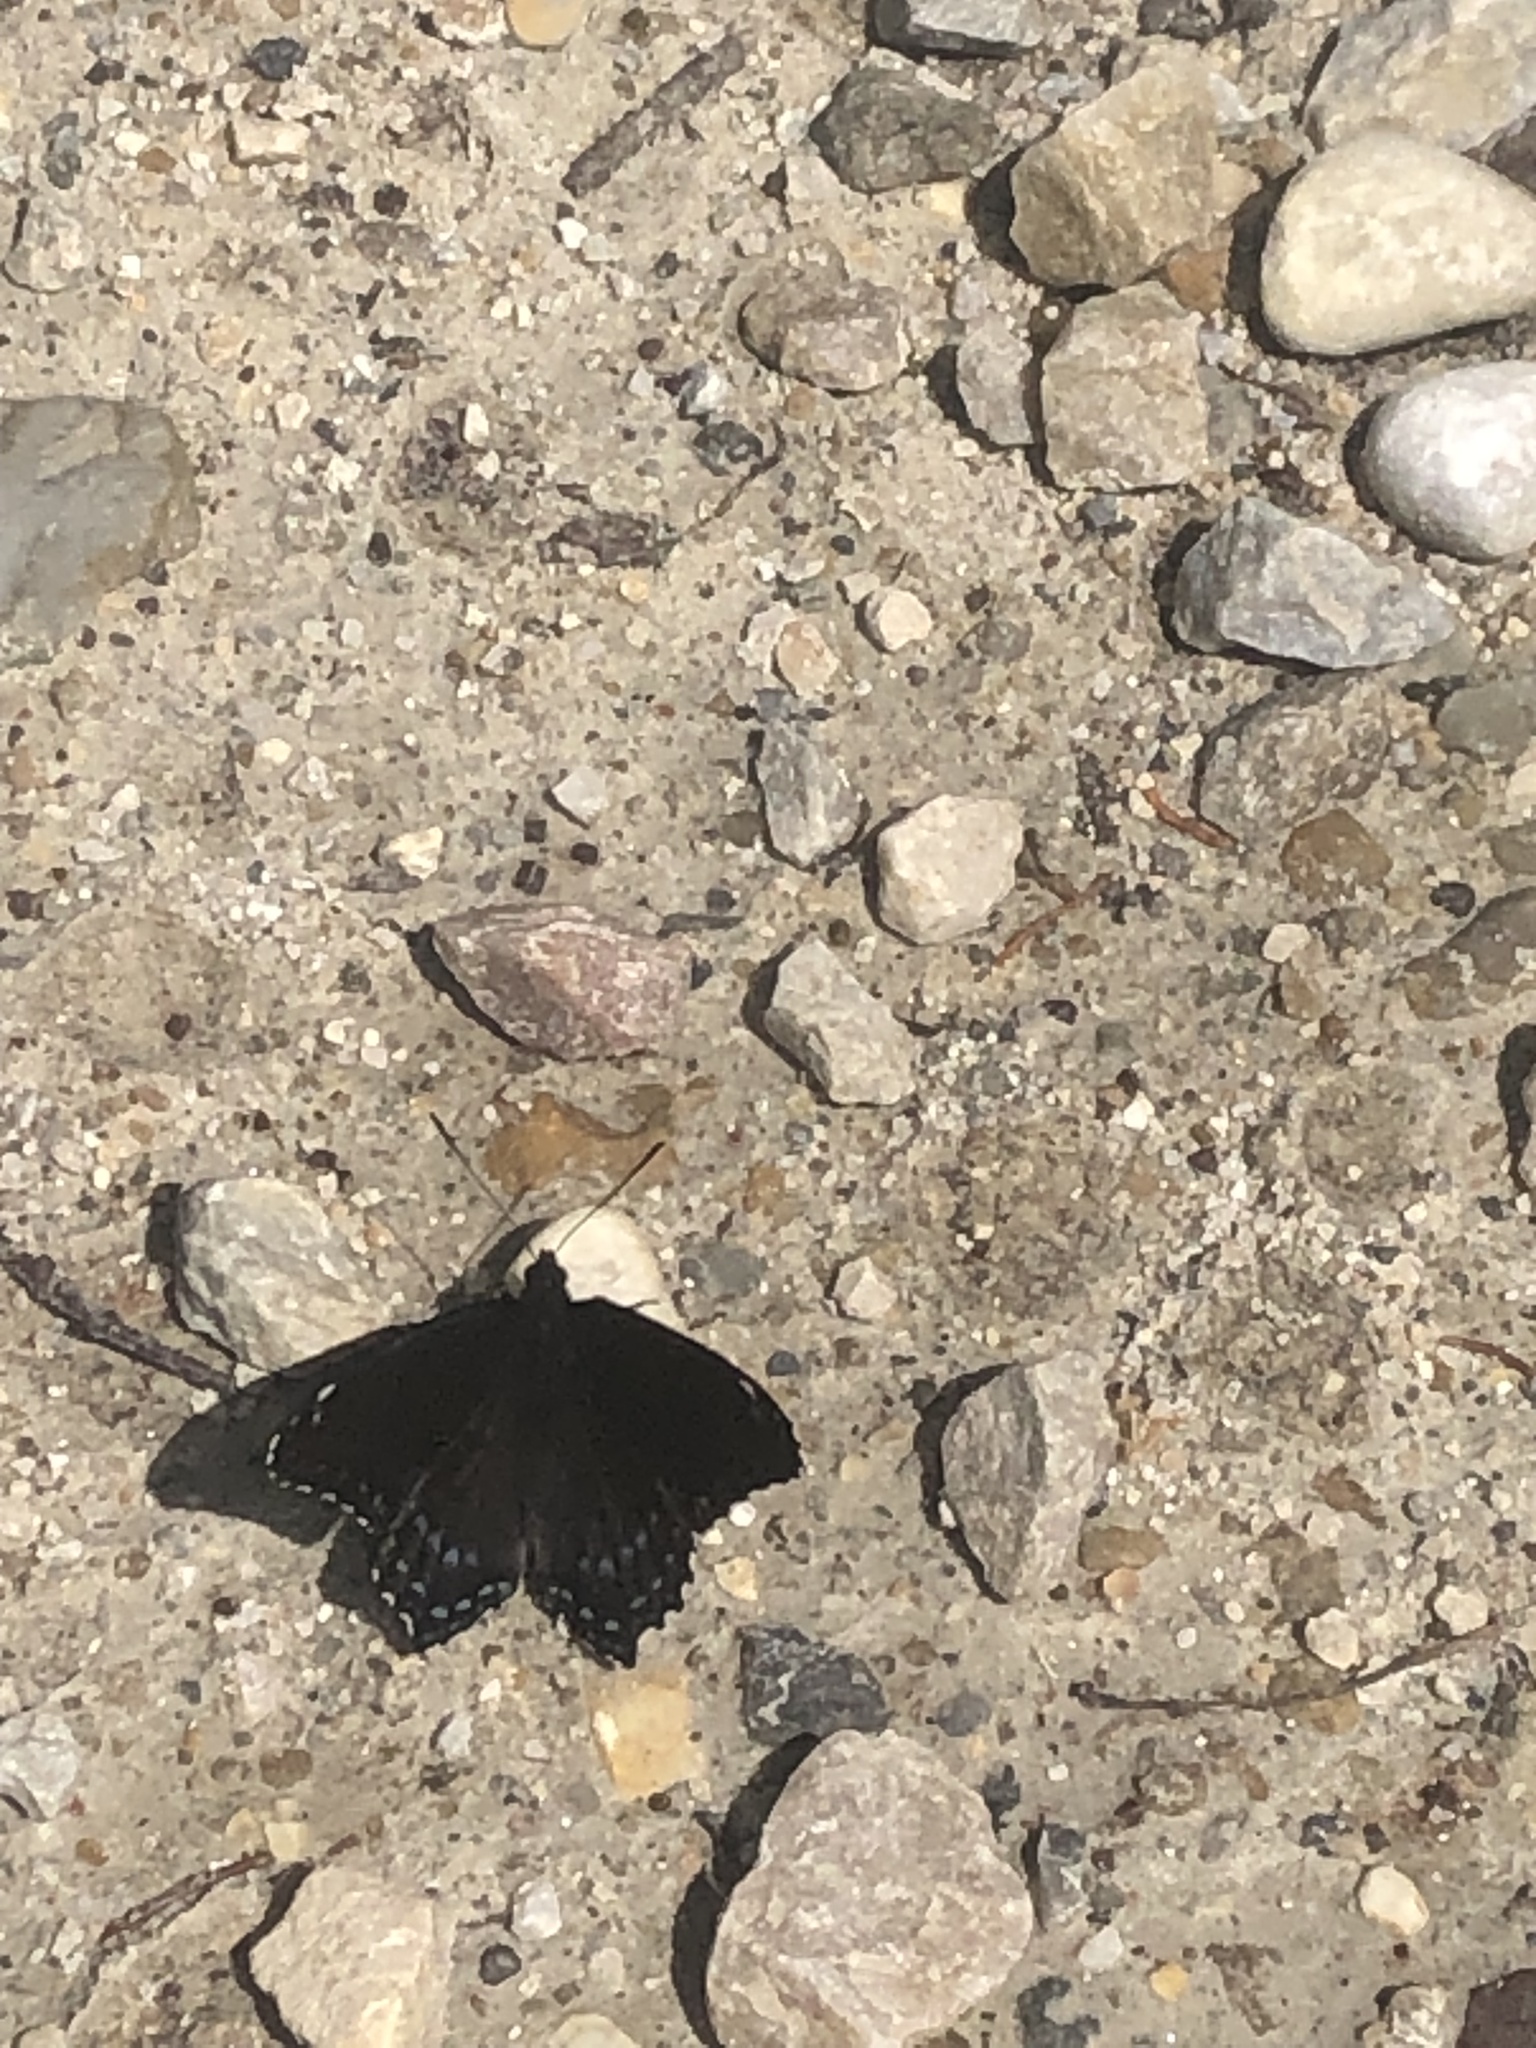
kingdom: Animalia
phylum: Arthropoda
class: Insecta
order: Lepidoptera
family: Nymphalidae
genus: Limenitis
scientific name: Limenitis astyanax
